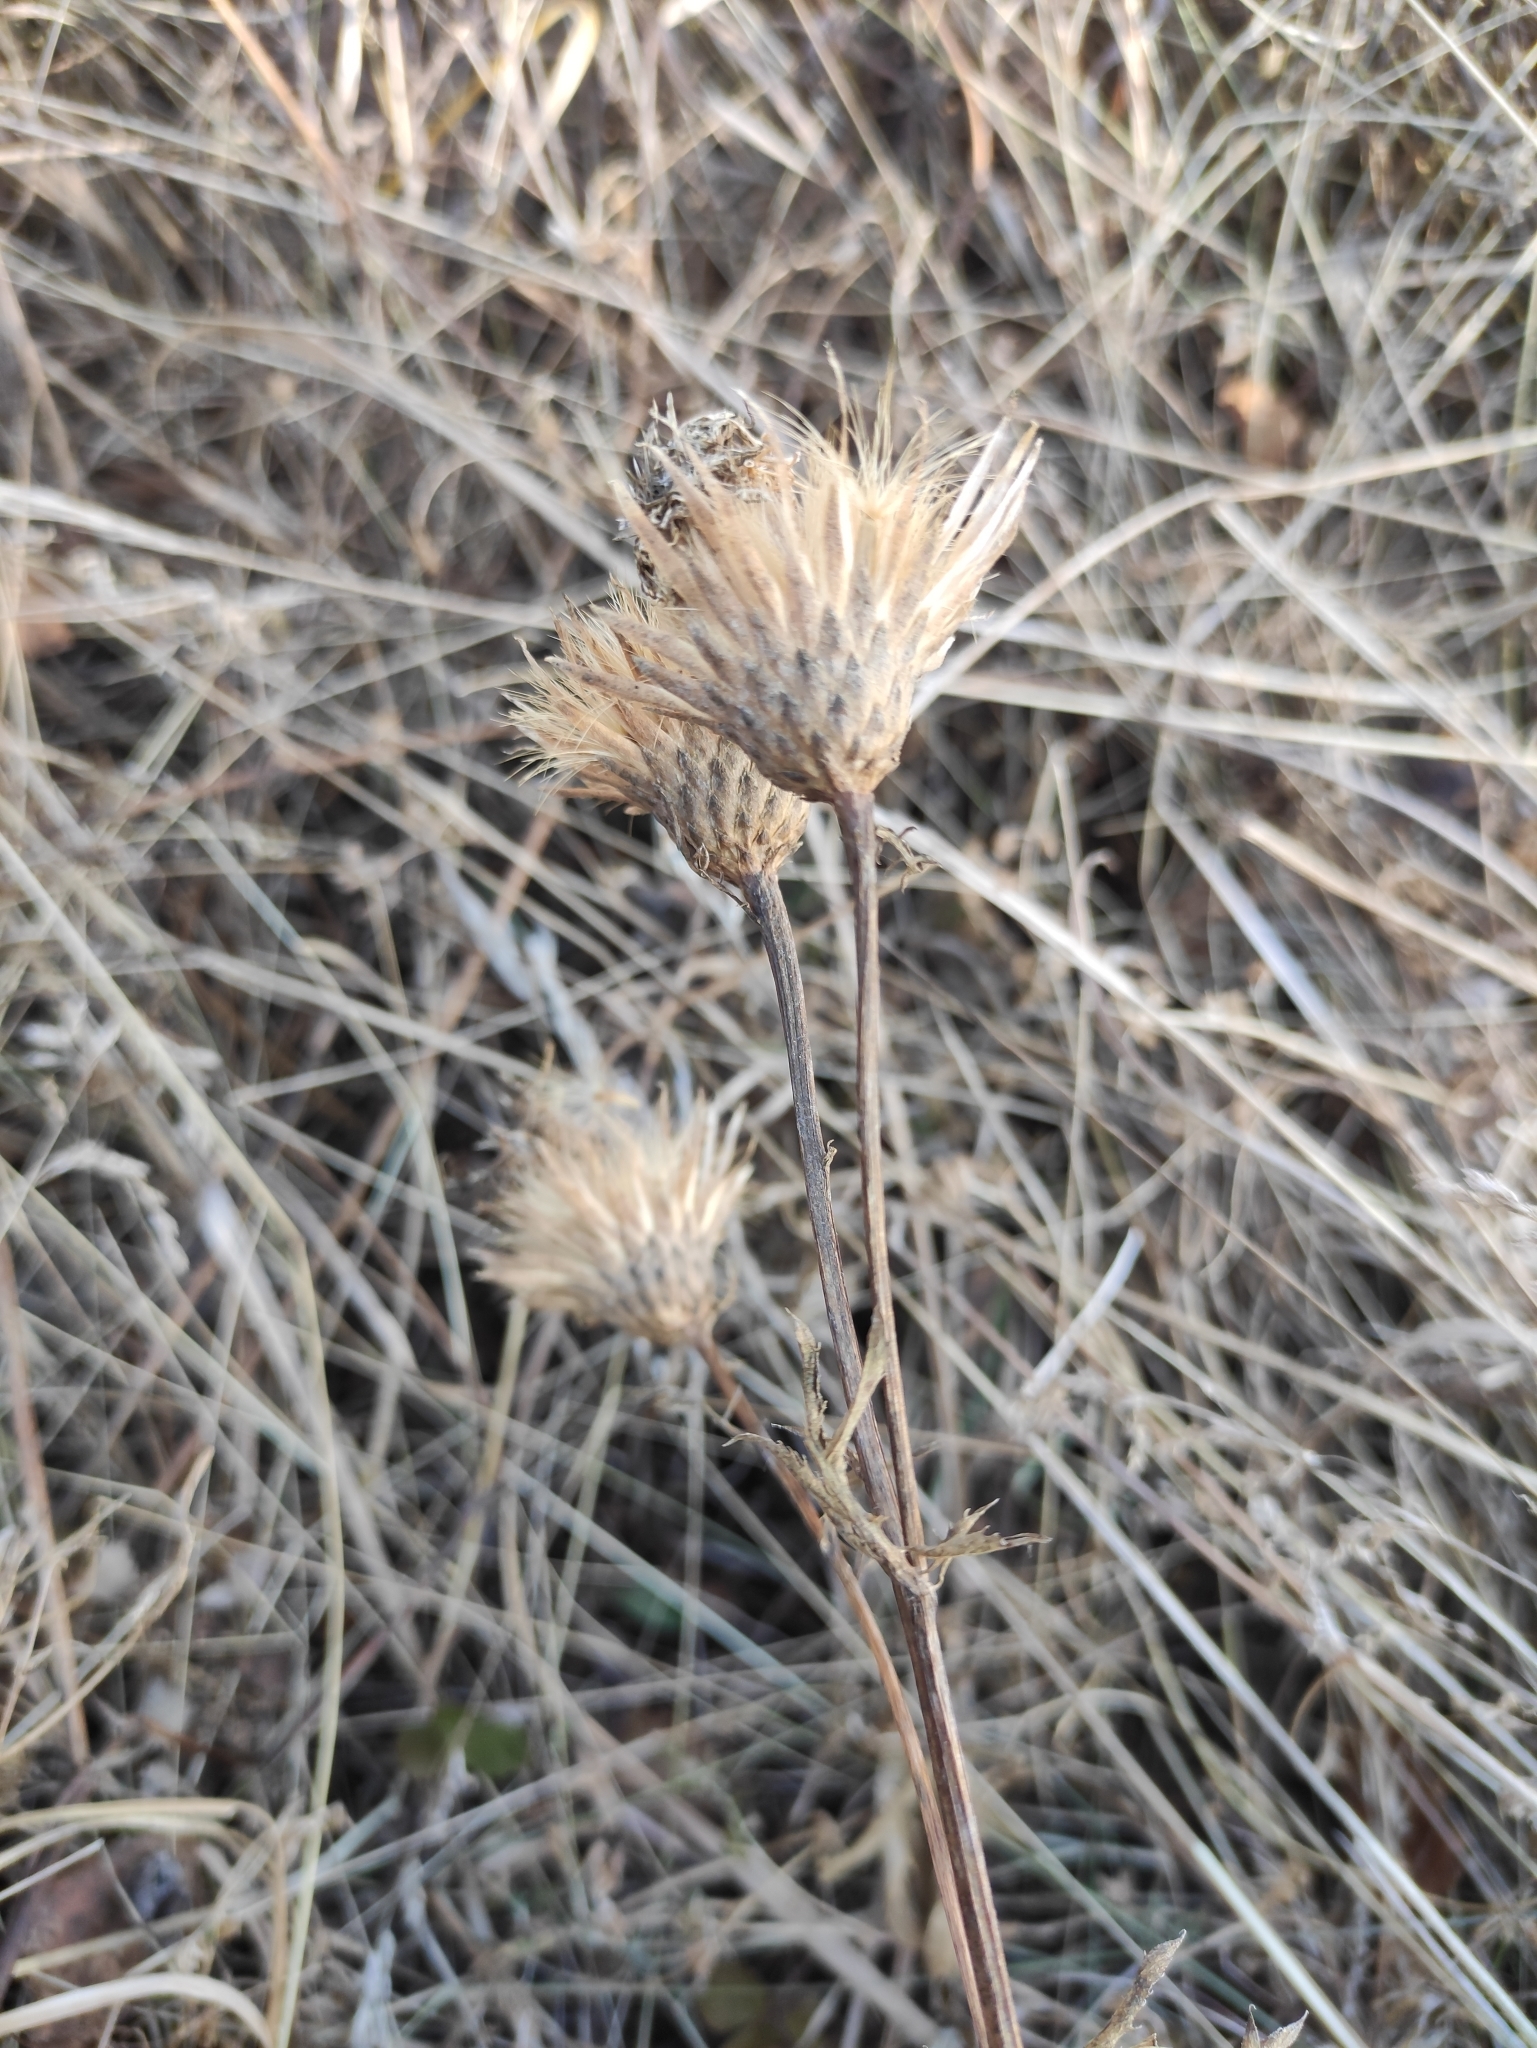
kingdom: Plantae
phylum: Tracheophyta
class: Magnoliopsida
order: Asterales
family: Asteraceae
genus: Serratula
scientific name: Serratula coronata
